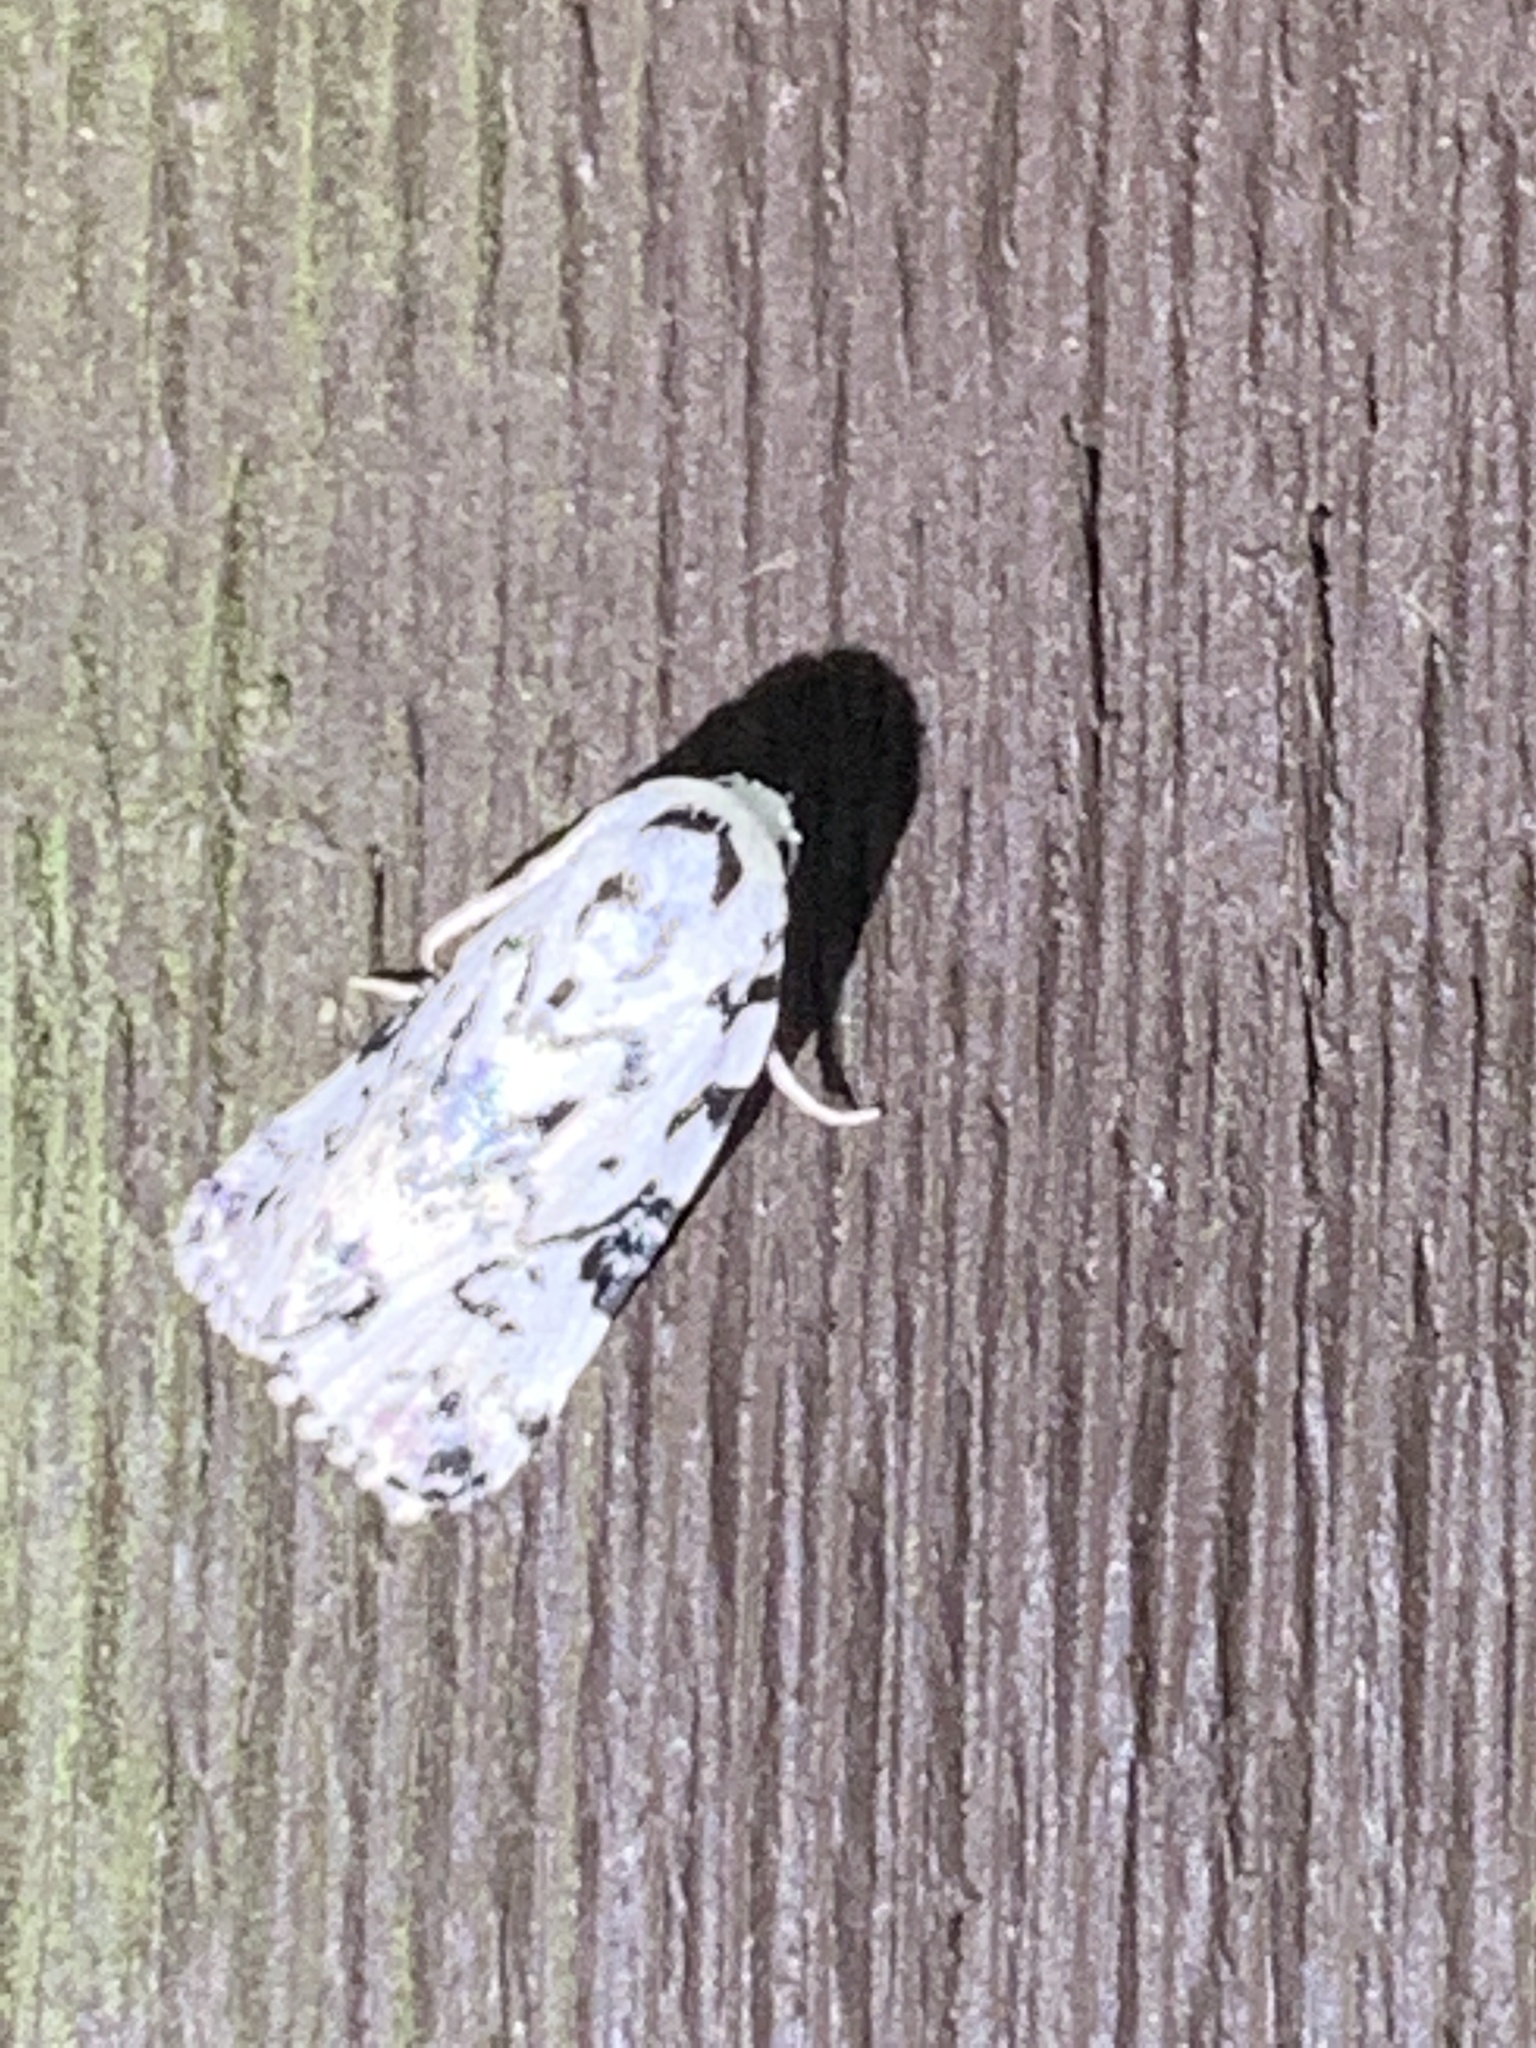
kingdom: Animalia
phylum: Arthropoda
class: Insecta
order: Lepidoptera
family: Noctuidae
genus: Polygrammate
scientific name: Polygrammate hebraeicum
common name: Hebrew moth
